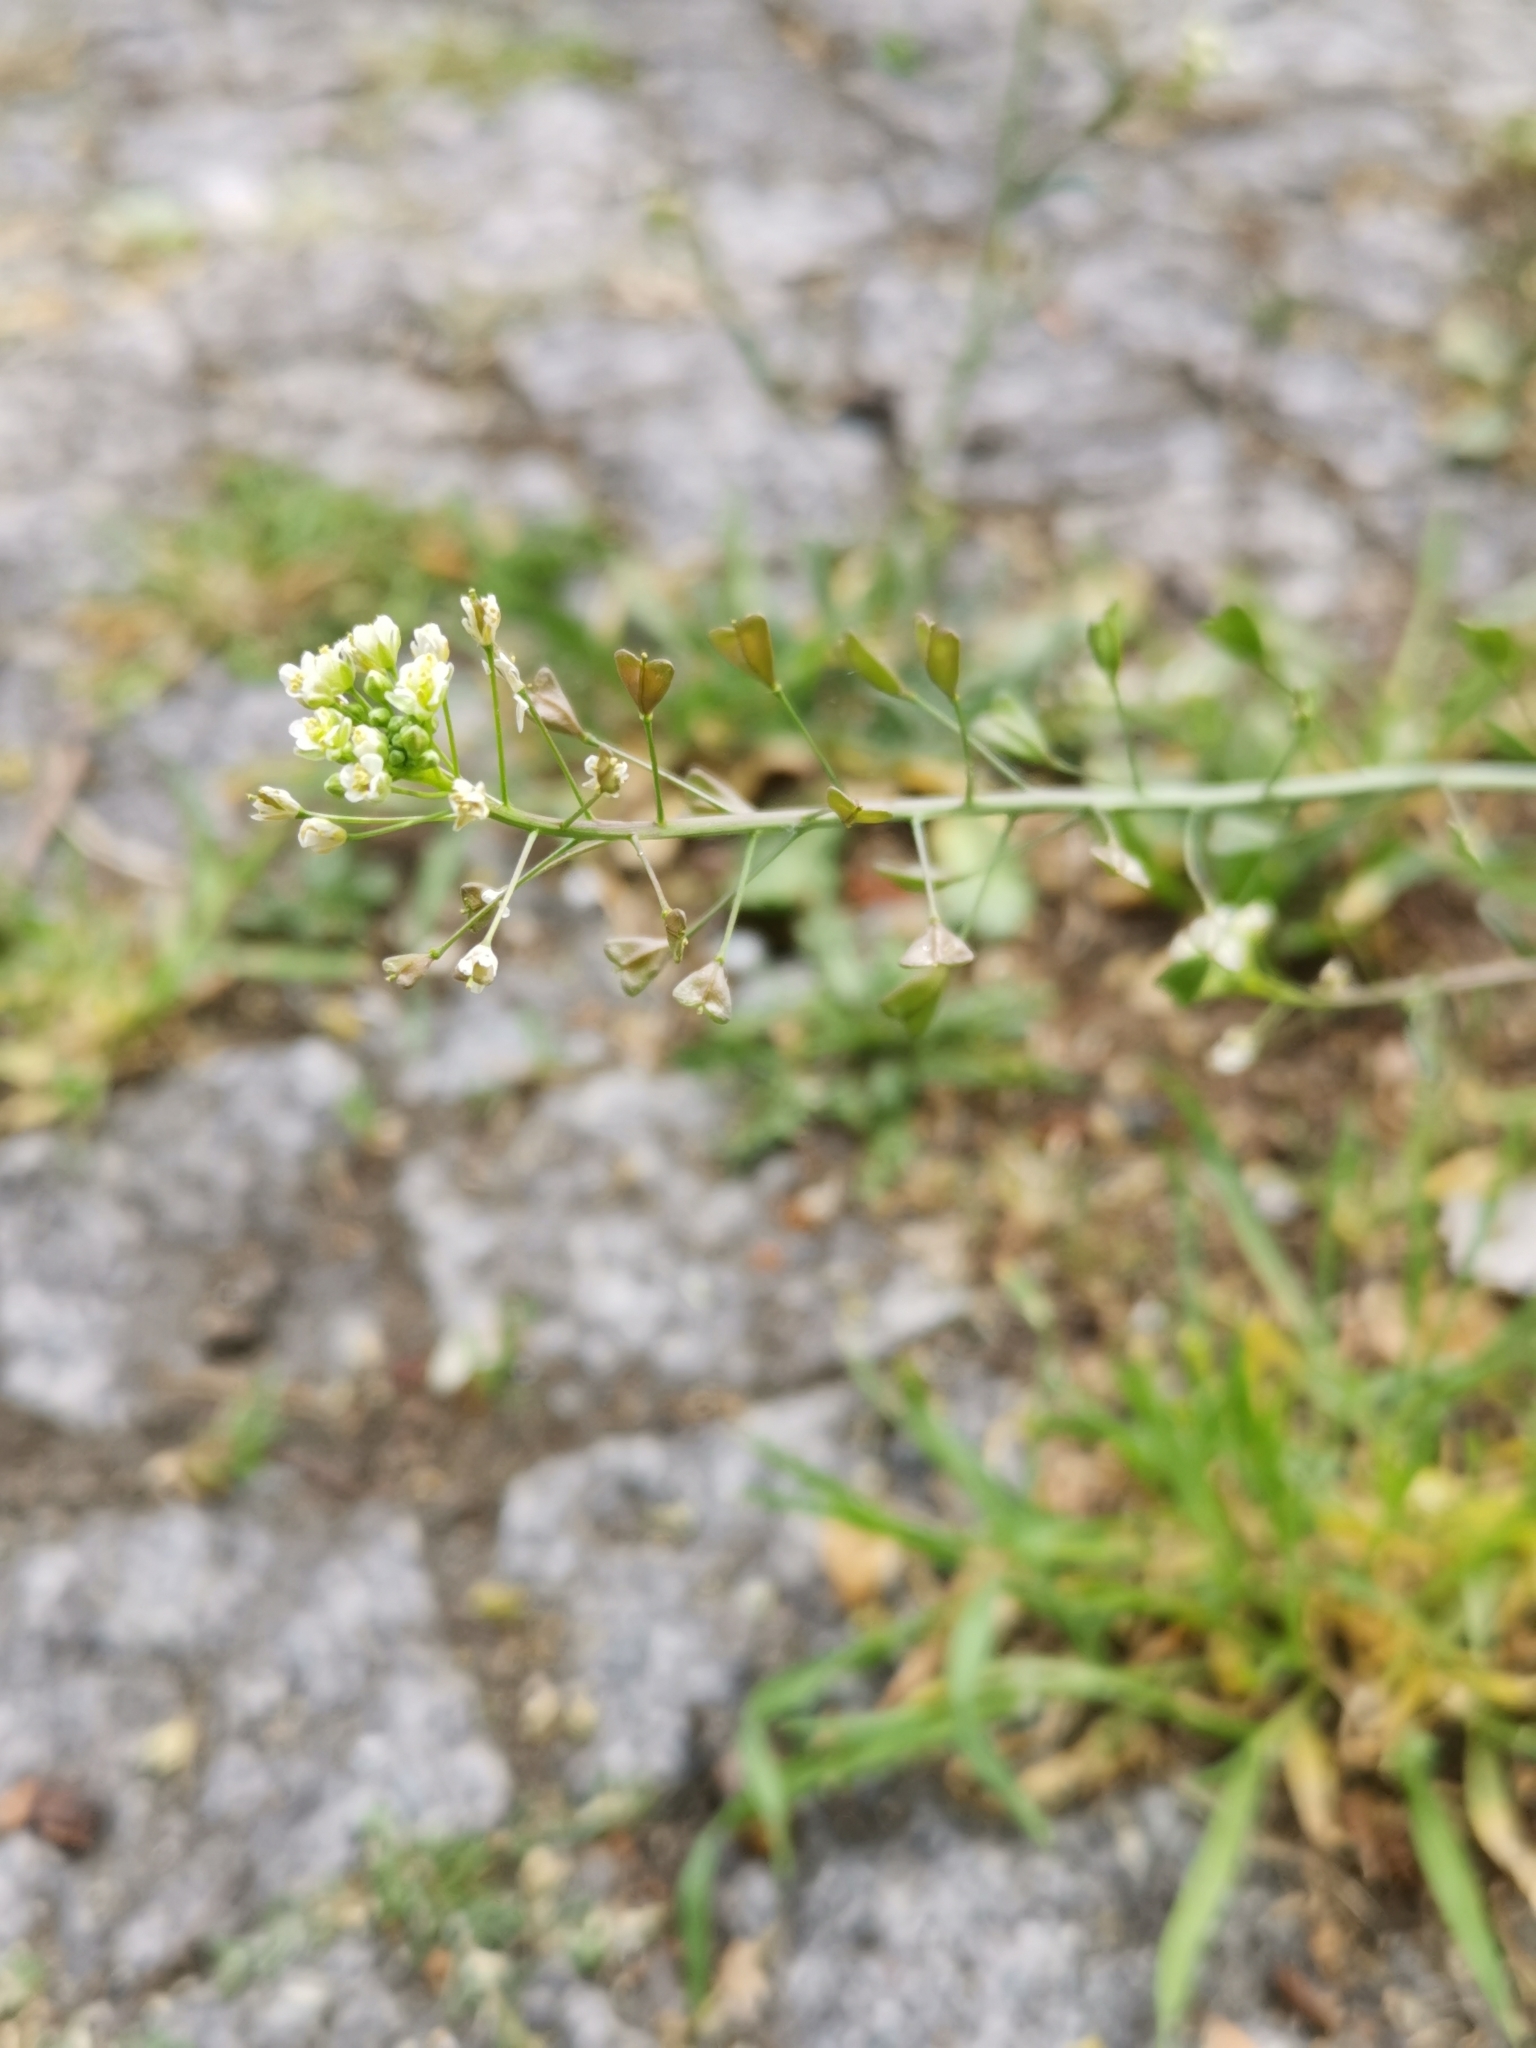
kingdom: Plantae
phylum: Tracheophyta
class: Magnoliopsida
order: Brassicales
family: Brassicaceae
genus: Capsella
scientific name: Capsella bursa-pastoris
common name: Shepherd's purse
